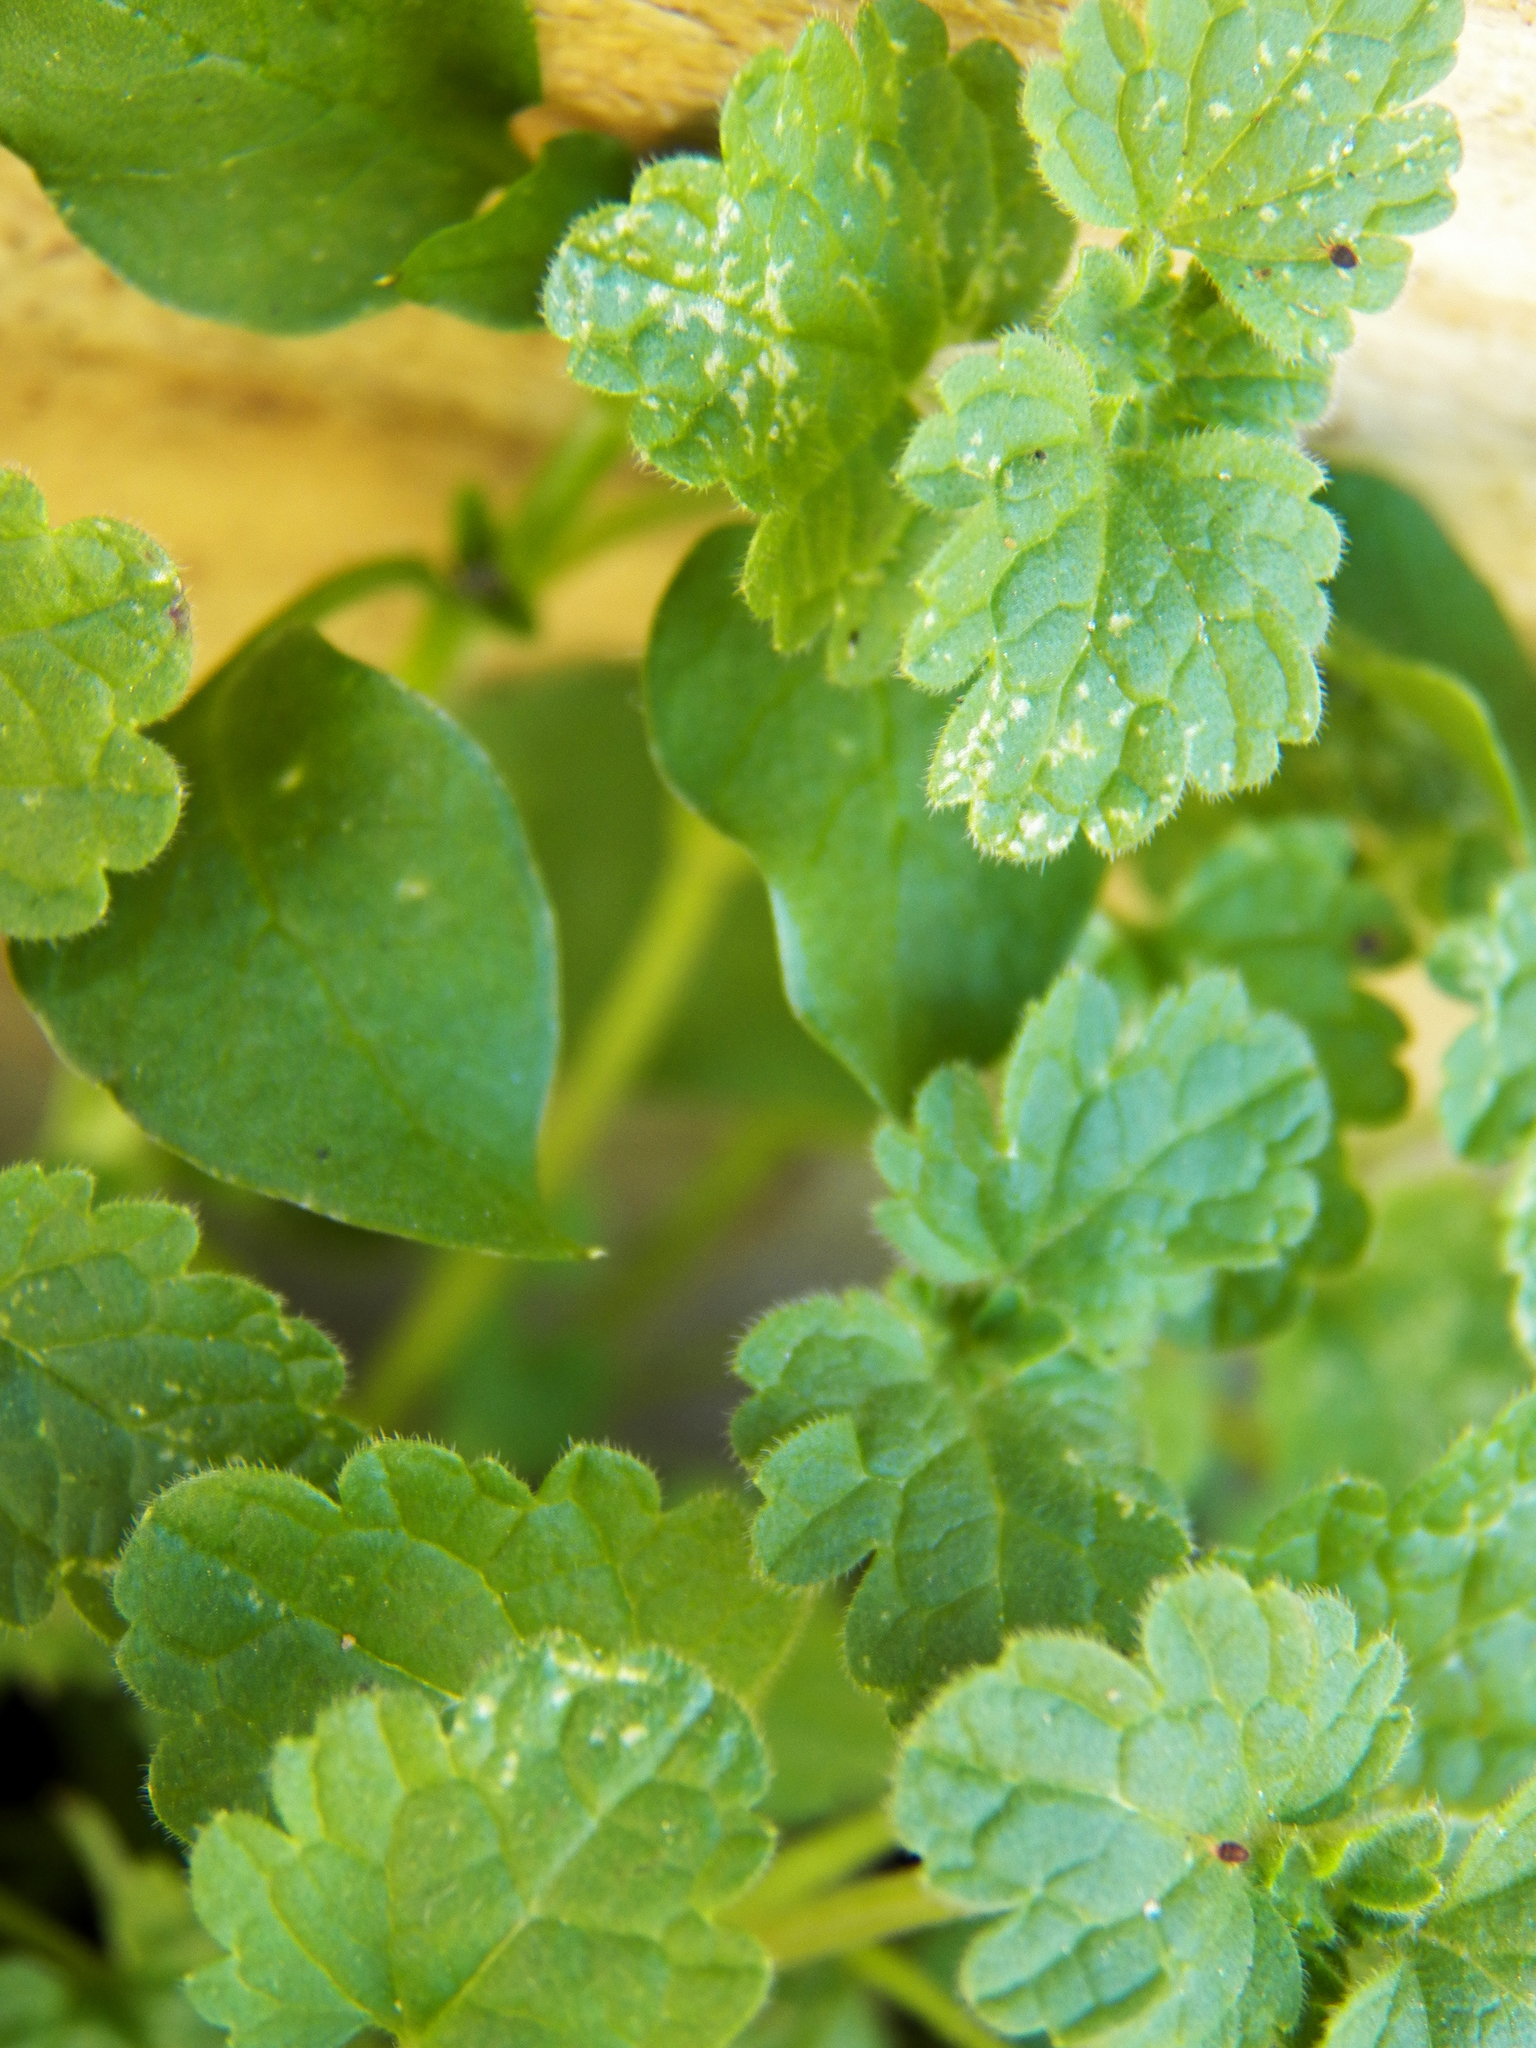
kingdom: Plantae
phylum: Tracheophyta
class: Magnoliopsida
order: Lamiales
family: Lamiaceae
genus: Lamium
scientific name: Lamium amplexicaule
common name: Henbit dead-nettle
